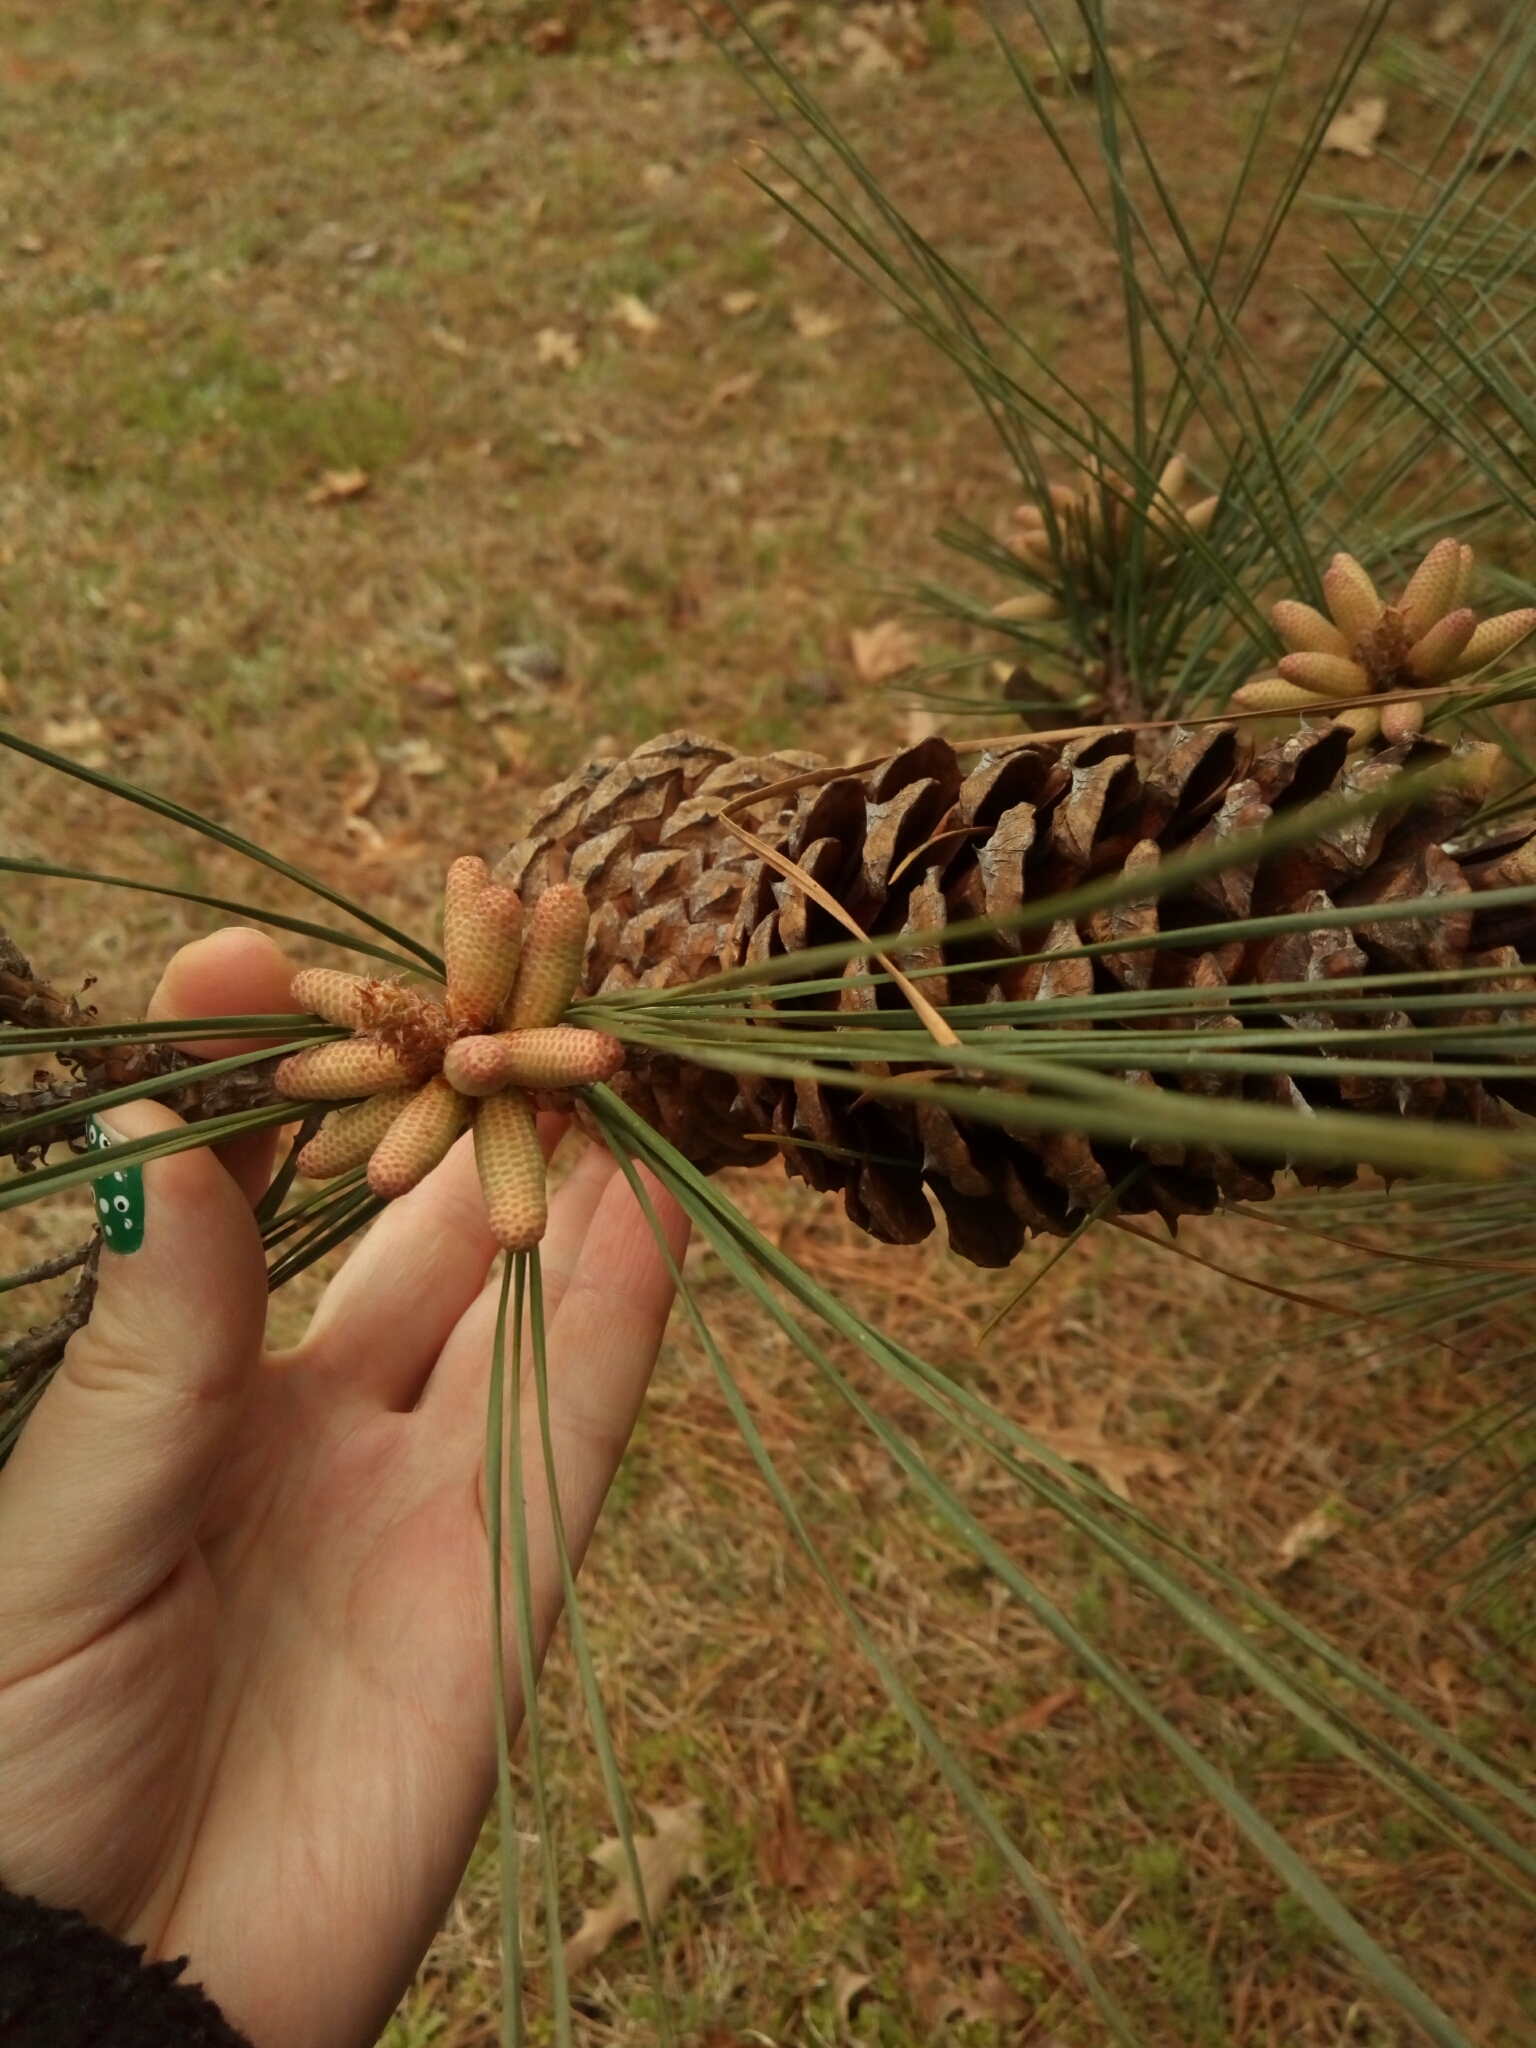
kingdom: Plantae
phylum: Tracheophyta
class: Pinopsida
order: Pinales
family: Pinaceae
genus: Pinus
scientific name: Pinus taeda
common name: Loblolly pine
